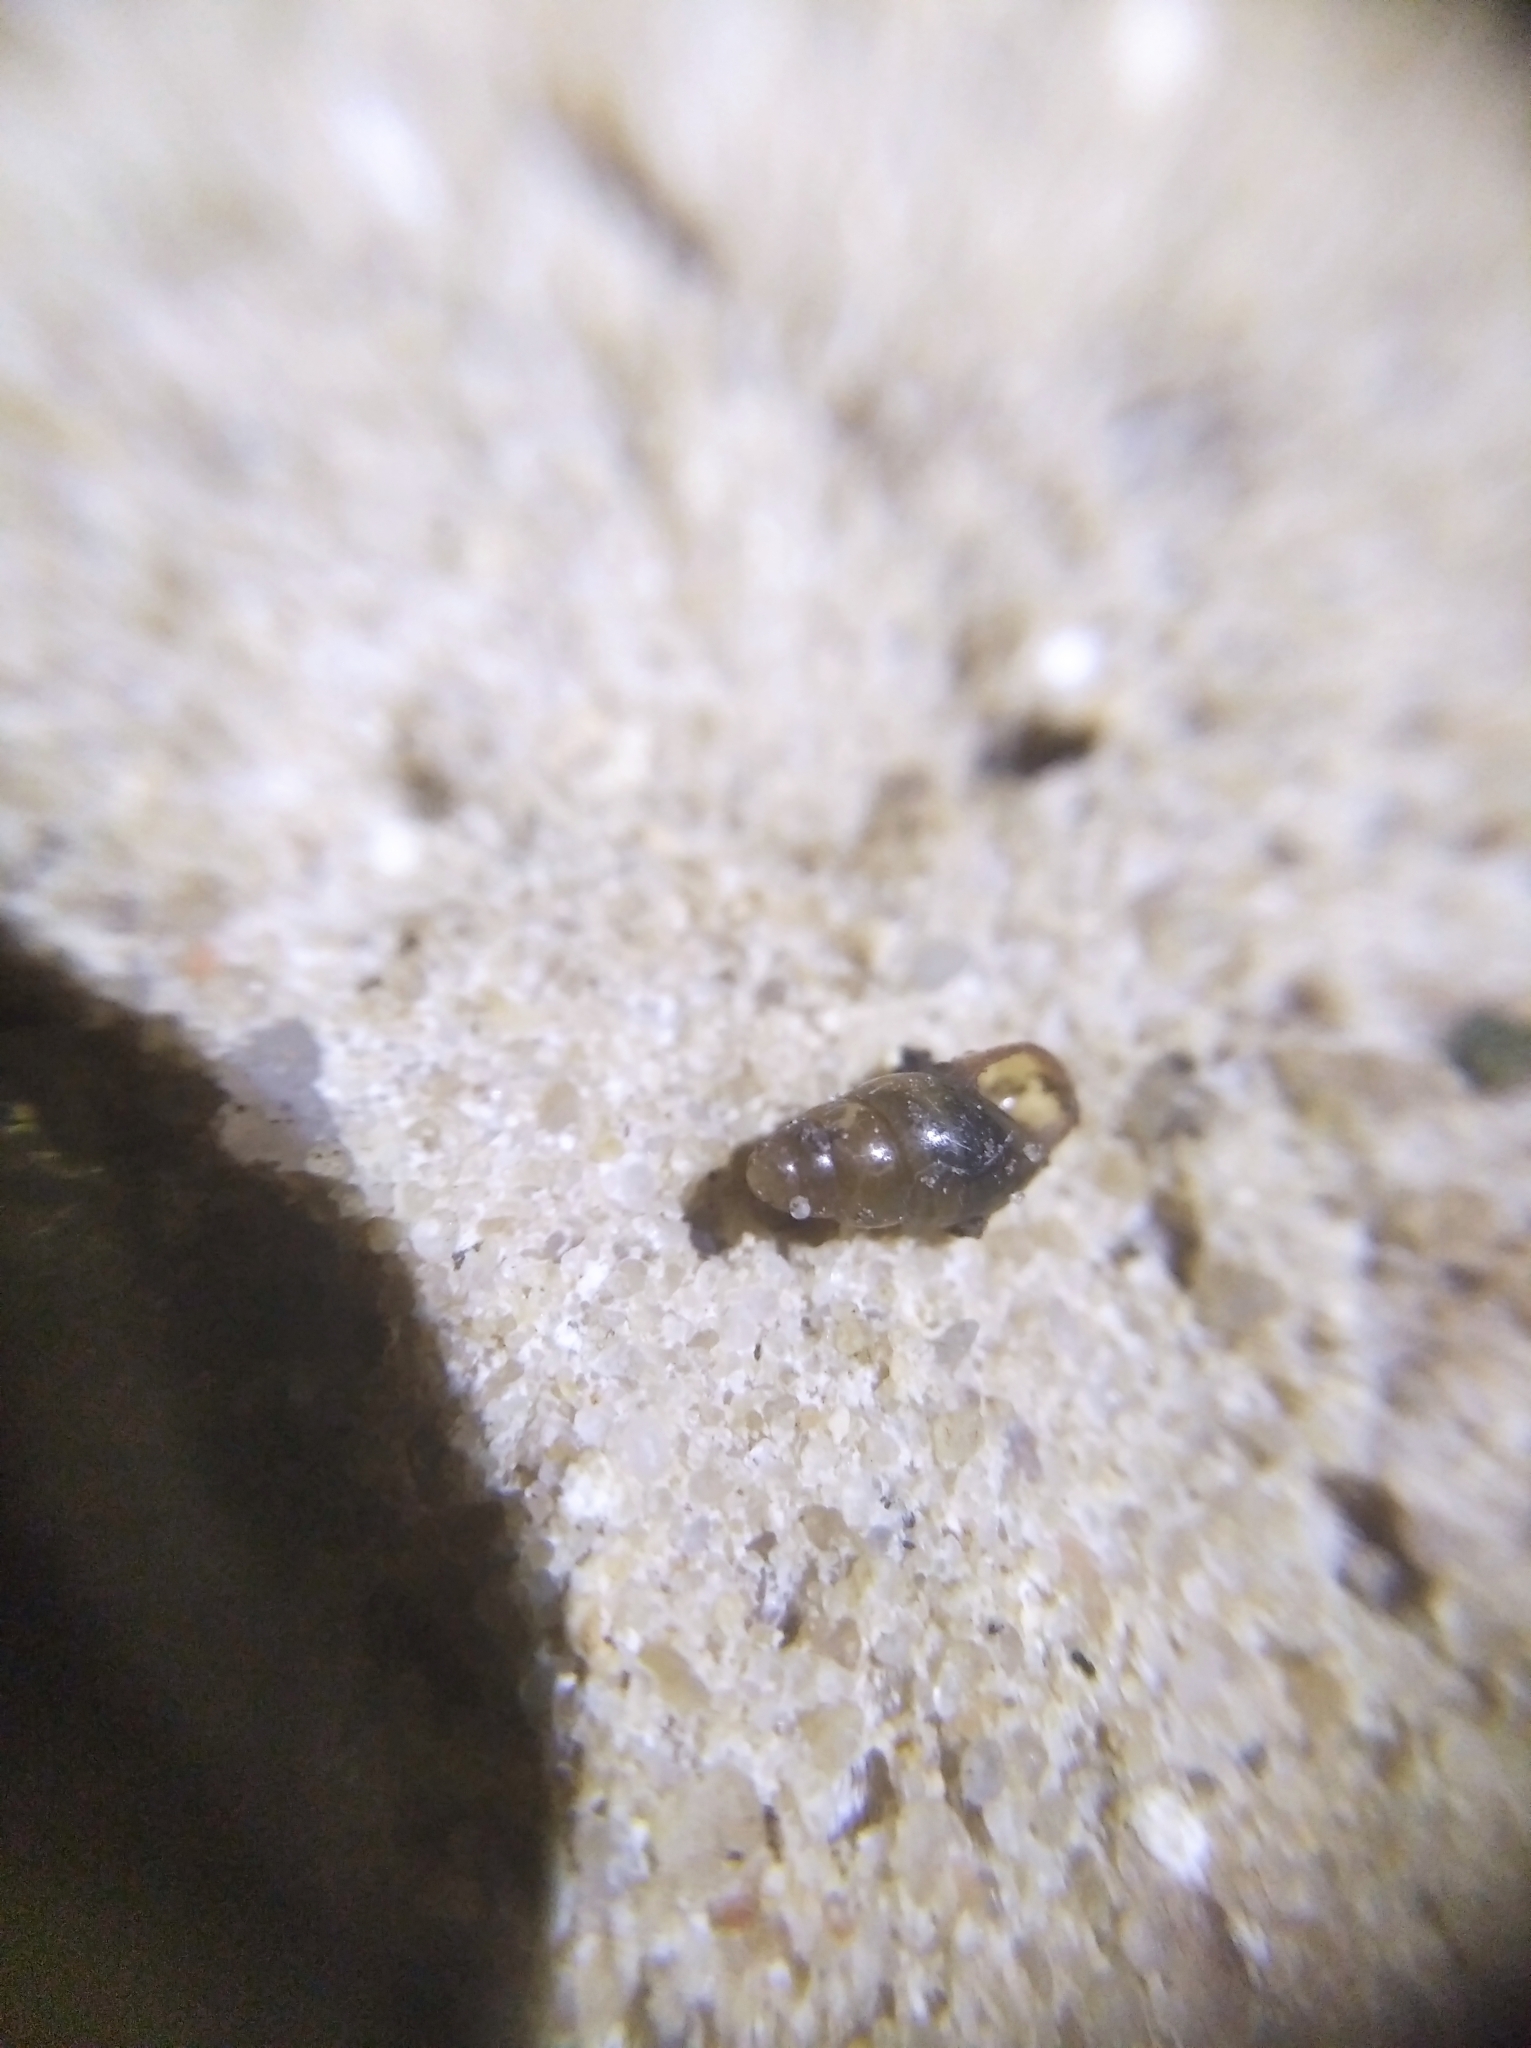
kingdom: Animalia
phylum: Mollusca
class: Gastropoda
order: Stylommatophora
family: Cochlicopidae
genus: Cochlicopa
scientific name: Cochlicopa lubrica
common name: Glossy pillar snail
